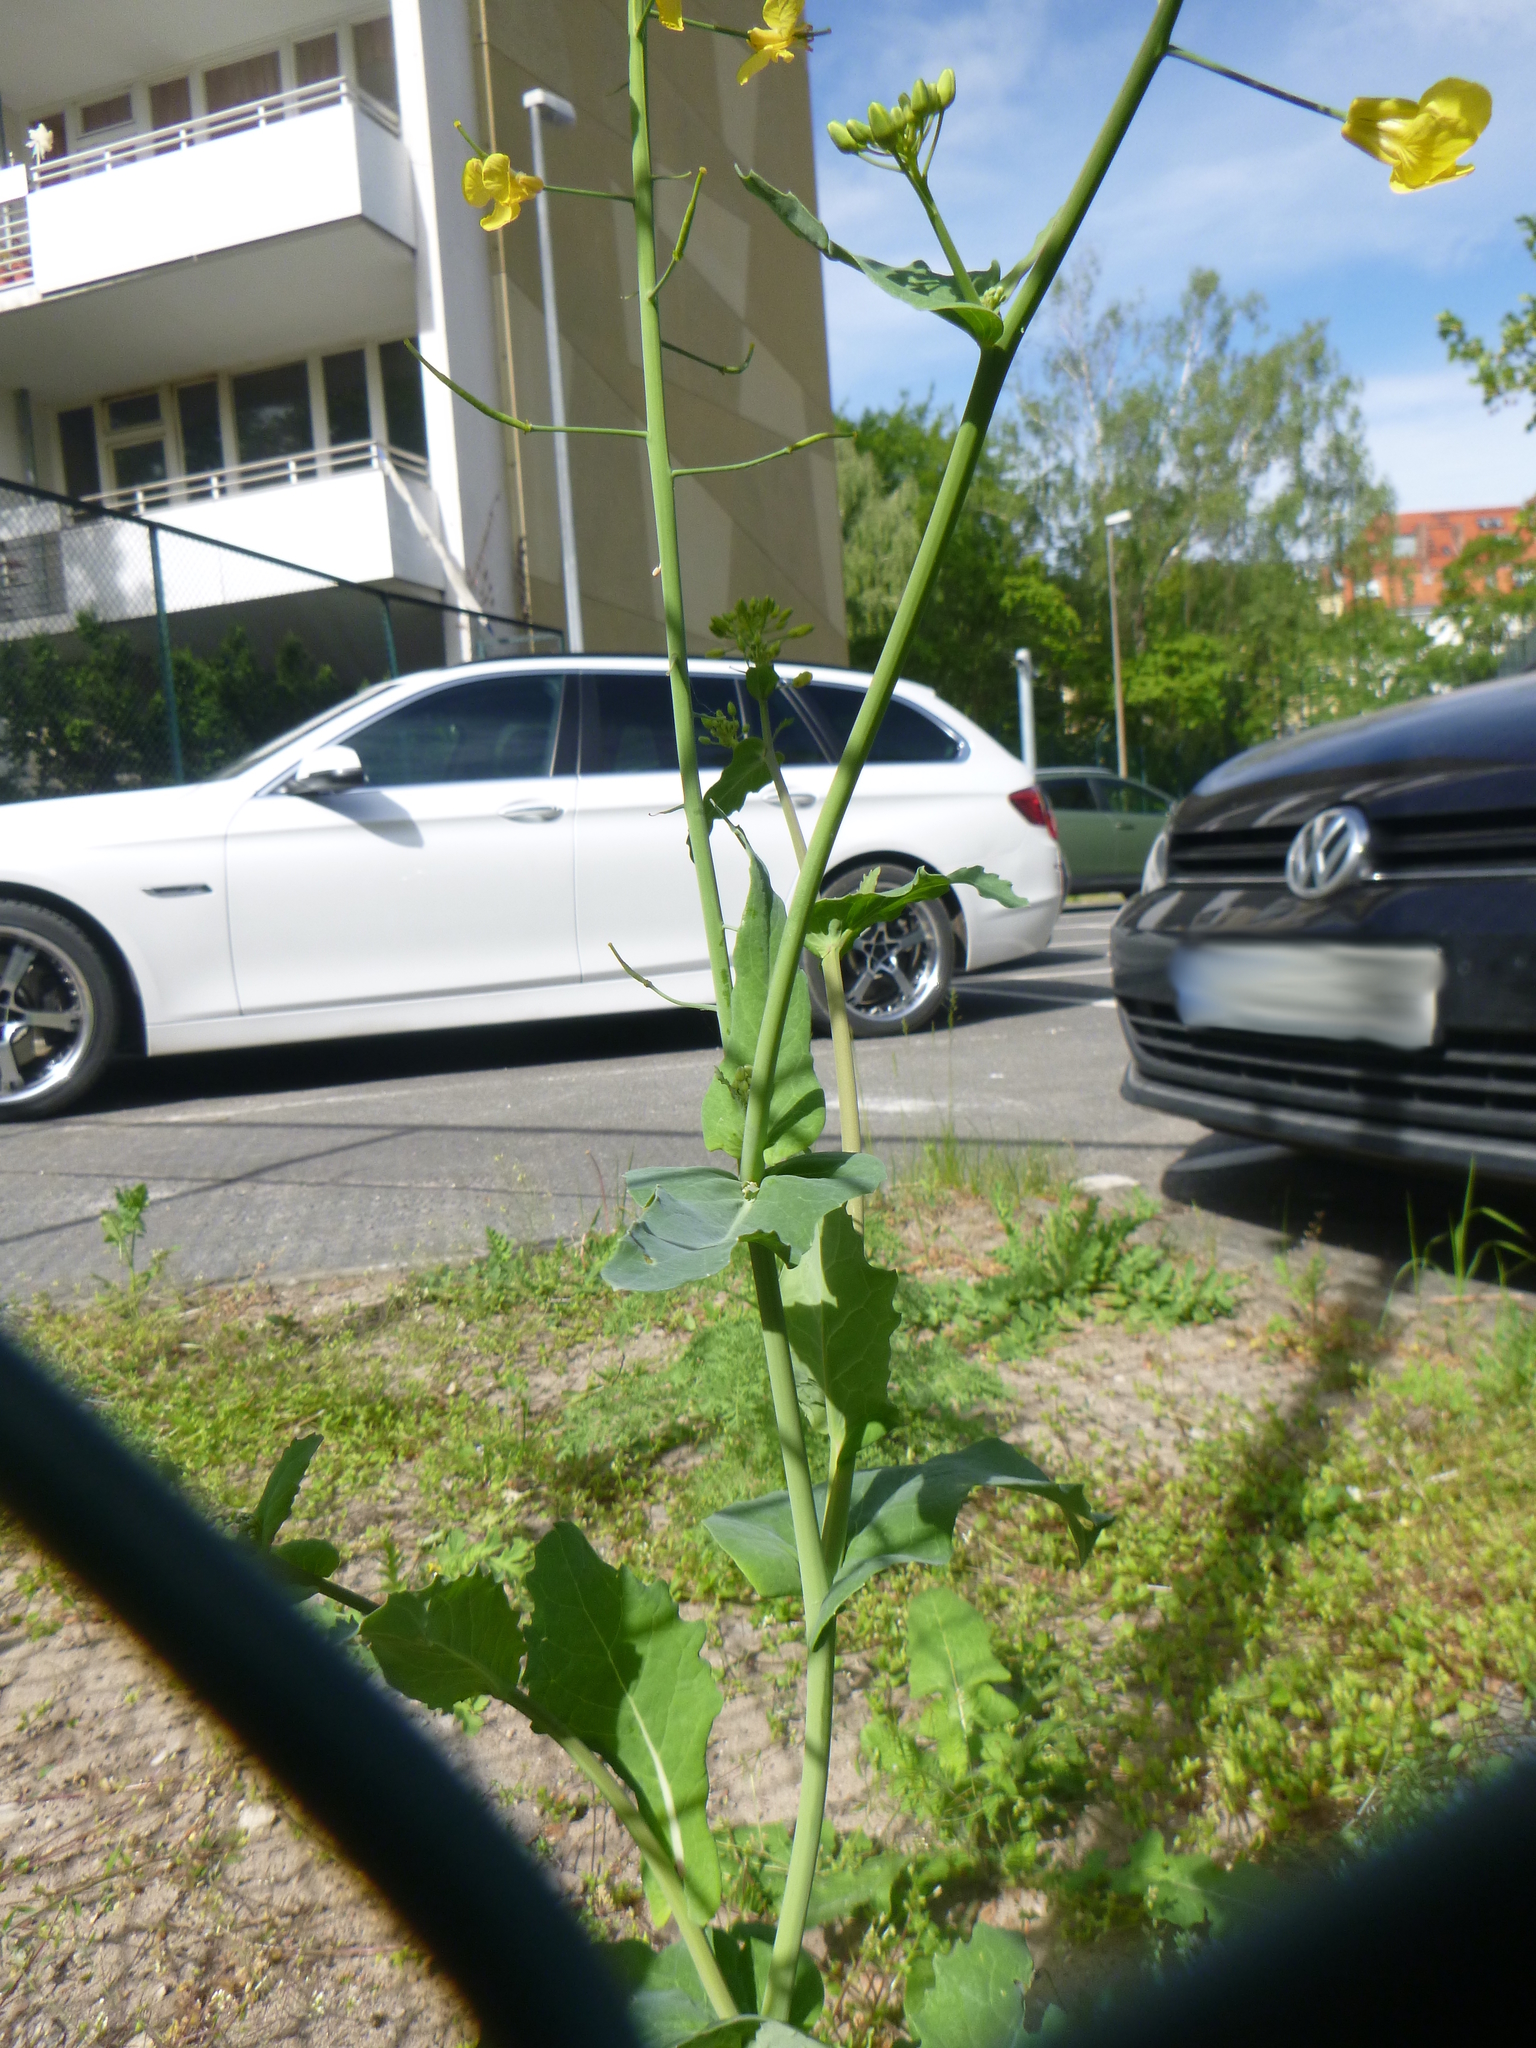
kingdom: Plantae
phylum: Tracheophyta
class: Magnoliopsida
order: Brassicales
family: Brassicaceae
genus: Brassica
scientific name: Brassica napus
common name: Rape
